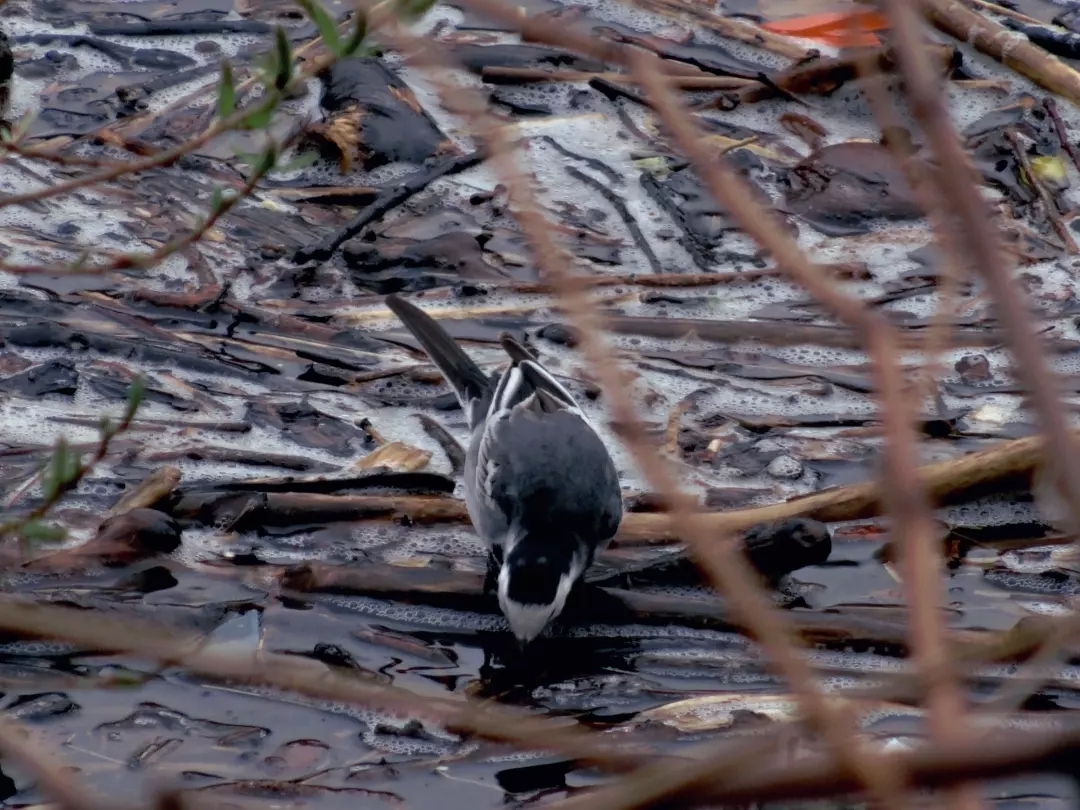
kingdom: Animalia
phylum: Chordata
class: Aves
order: Passeriformes
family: Motacillidae
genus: Motacilla
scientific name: Motacilla alba
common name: White wagtail
